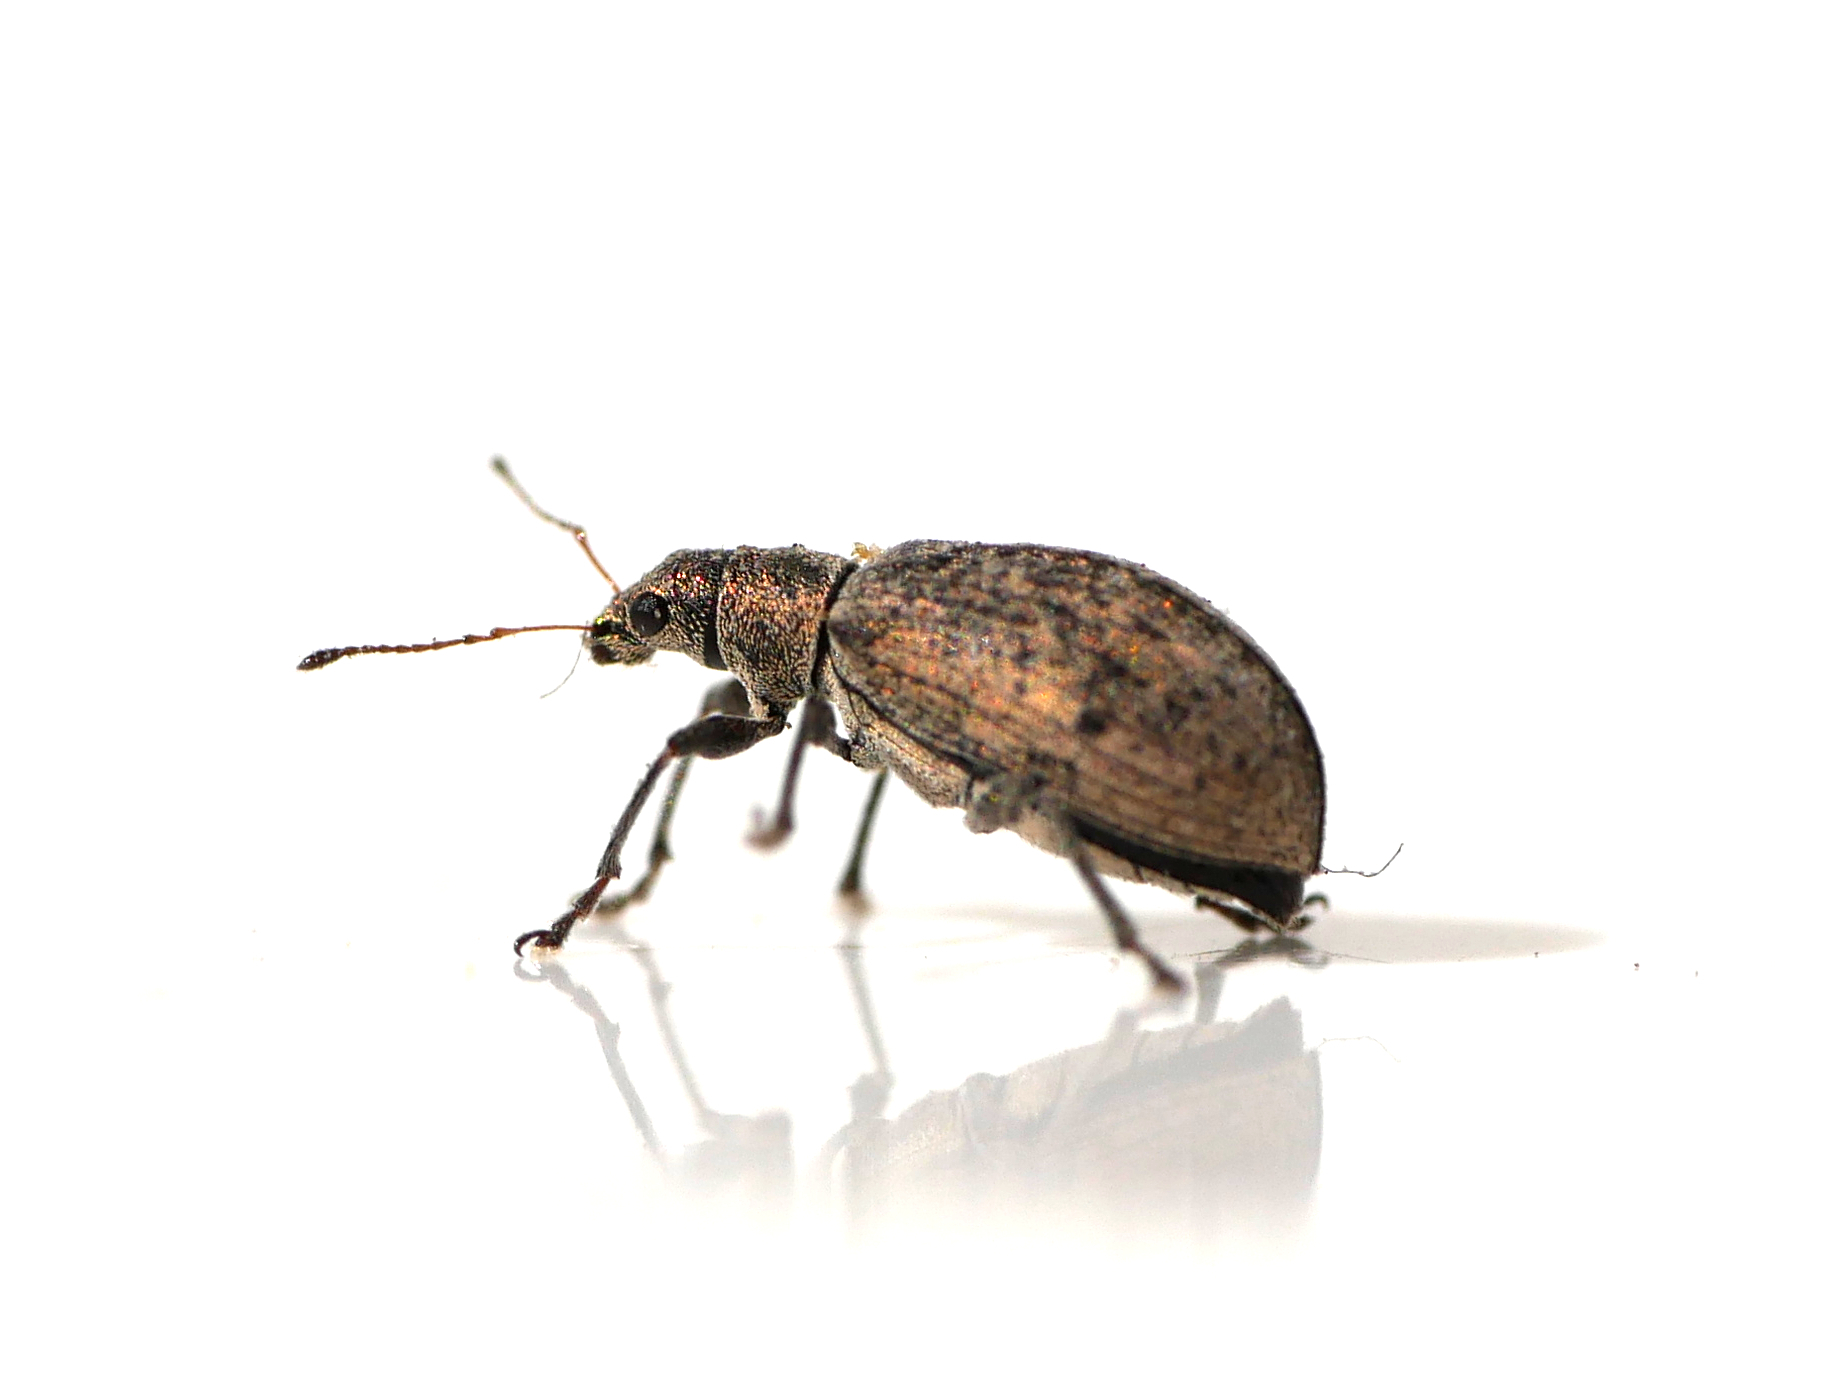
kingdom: Animalia
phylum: Arthropoda
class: Insecta
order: Coleoptera
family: Curculionidae
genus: Polydrusus
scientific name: Polydrusus cervinus
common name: Weevil
